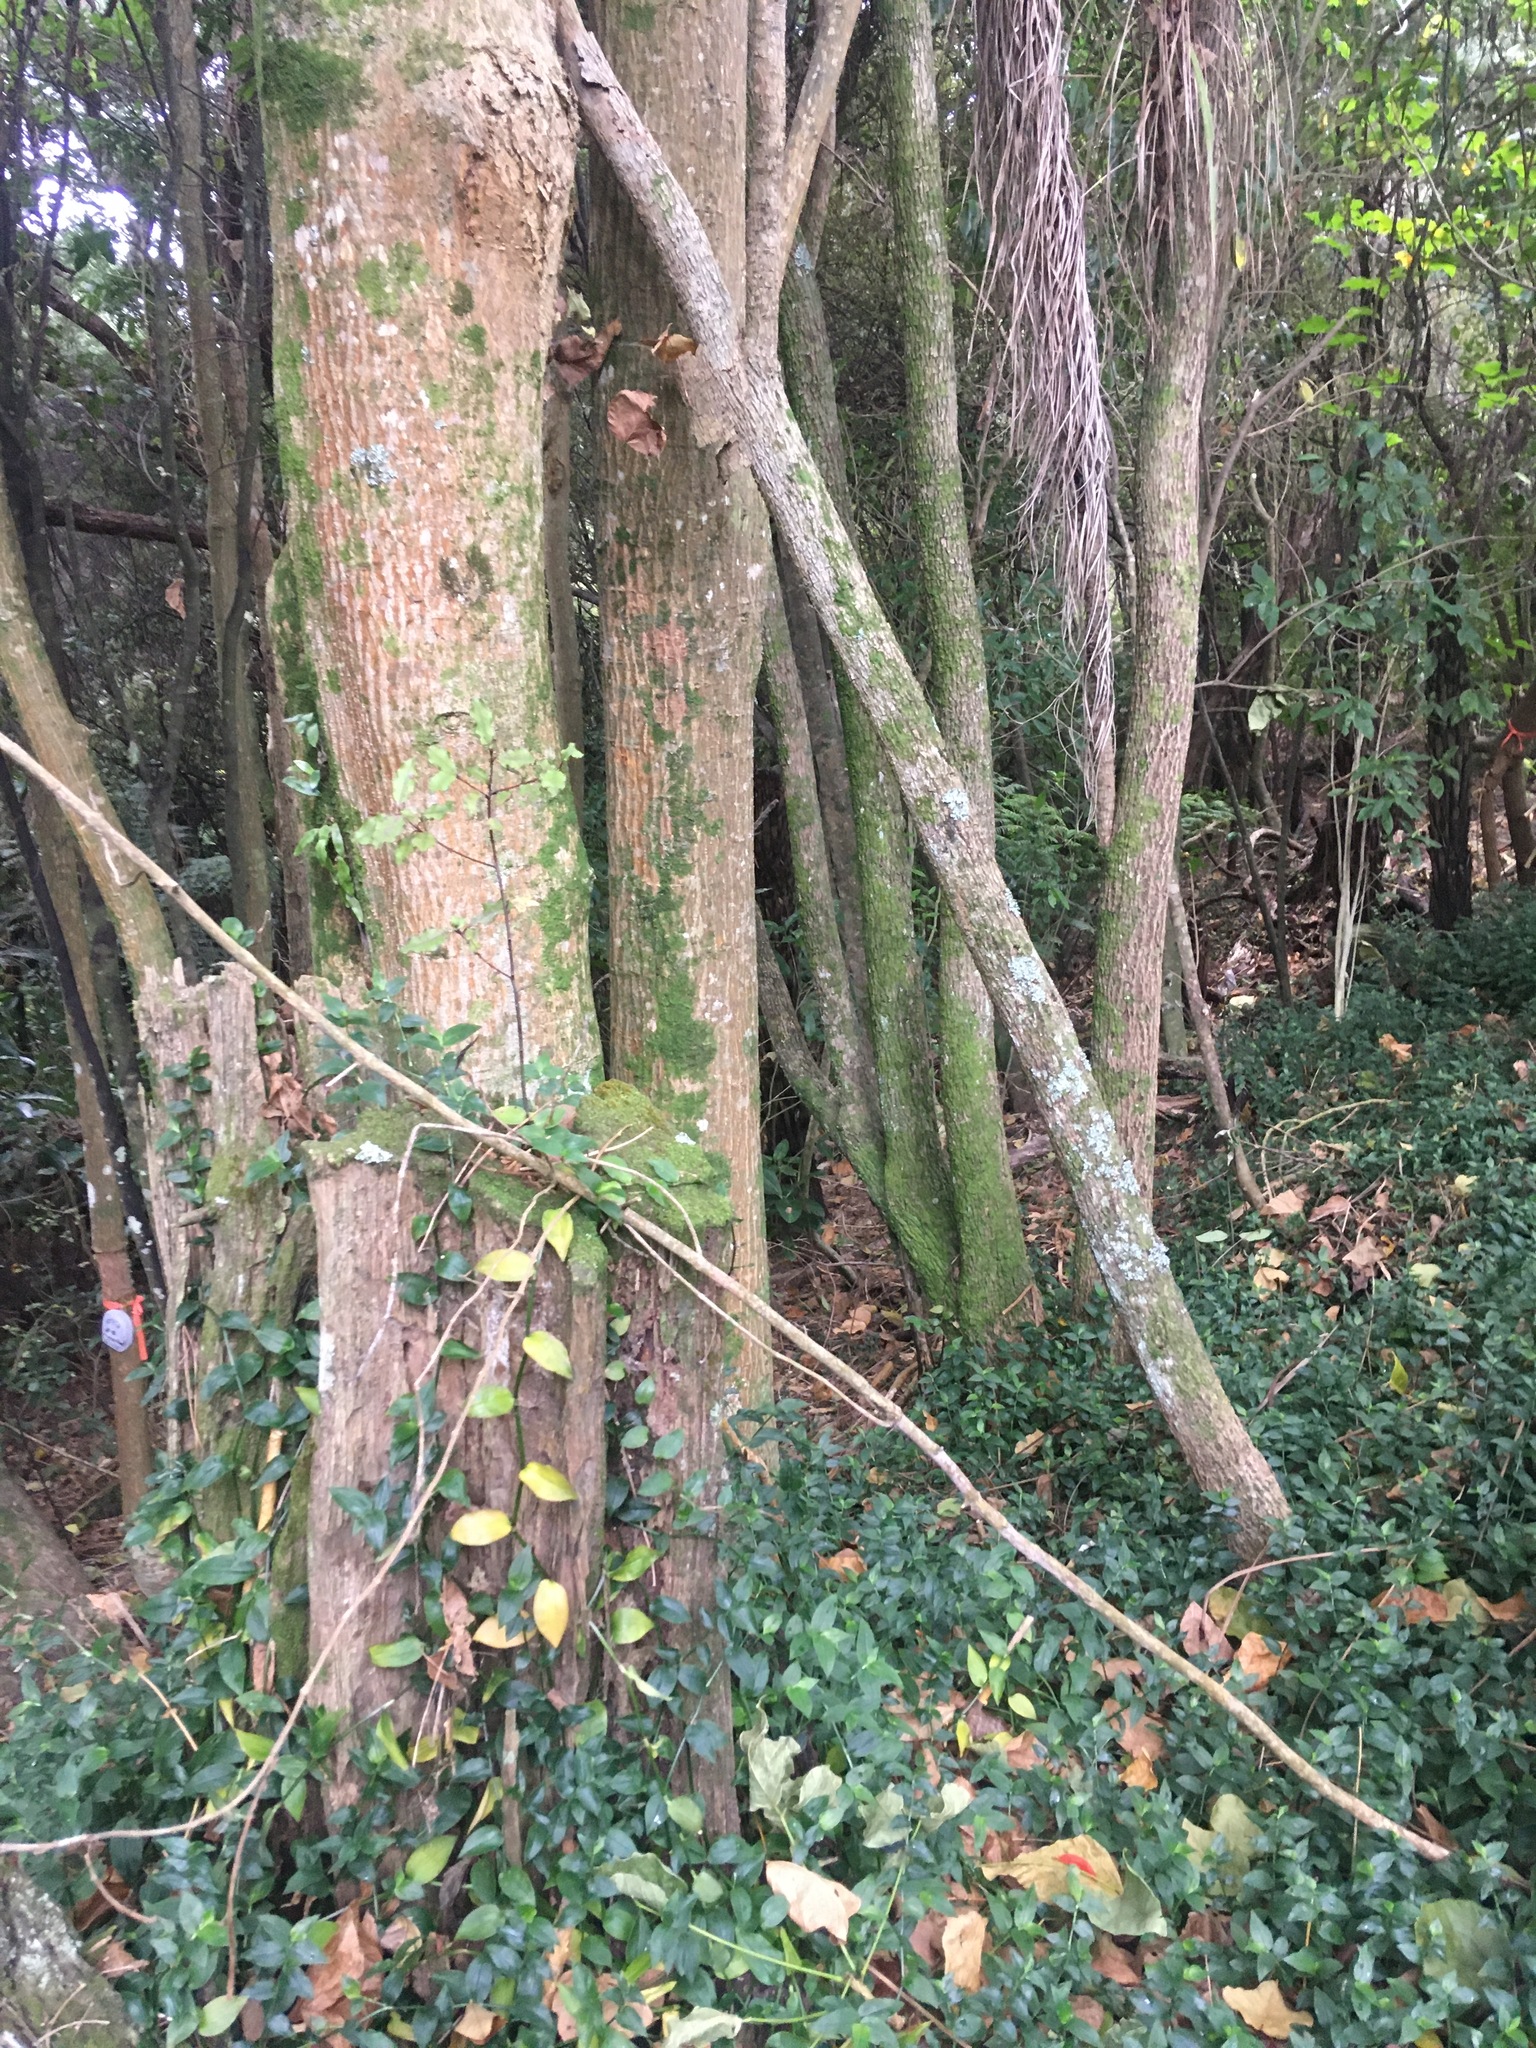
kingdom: Plantae
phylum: Tracheophyta
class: Magnoliopsida
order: Fabales
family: Fabaceae
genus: Erythrina
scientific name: Erythrina sykesii
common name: Coraltree
